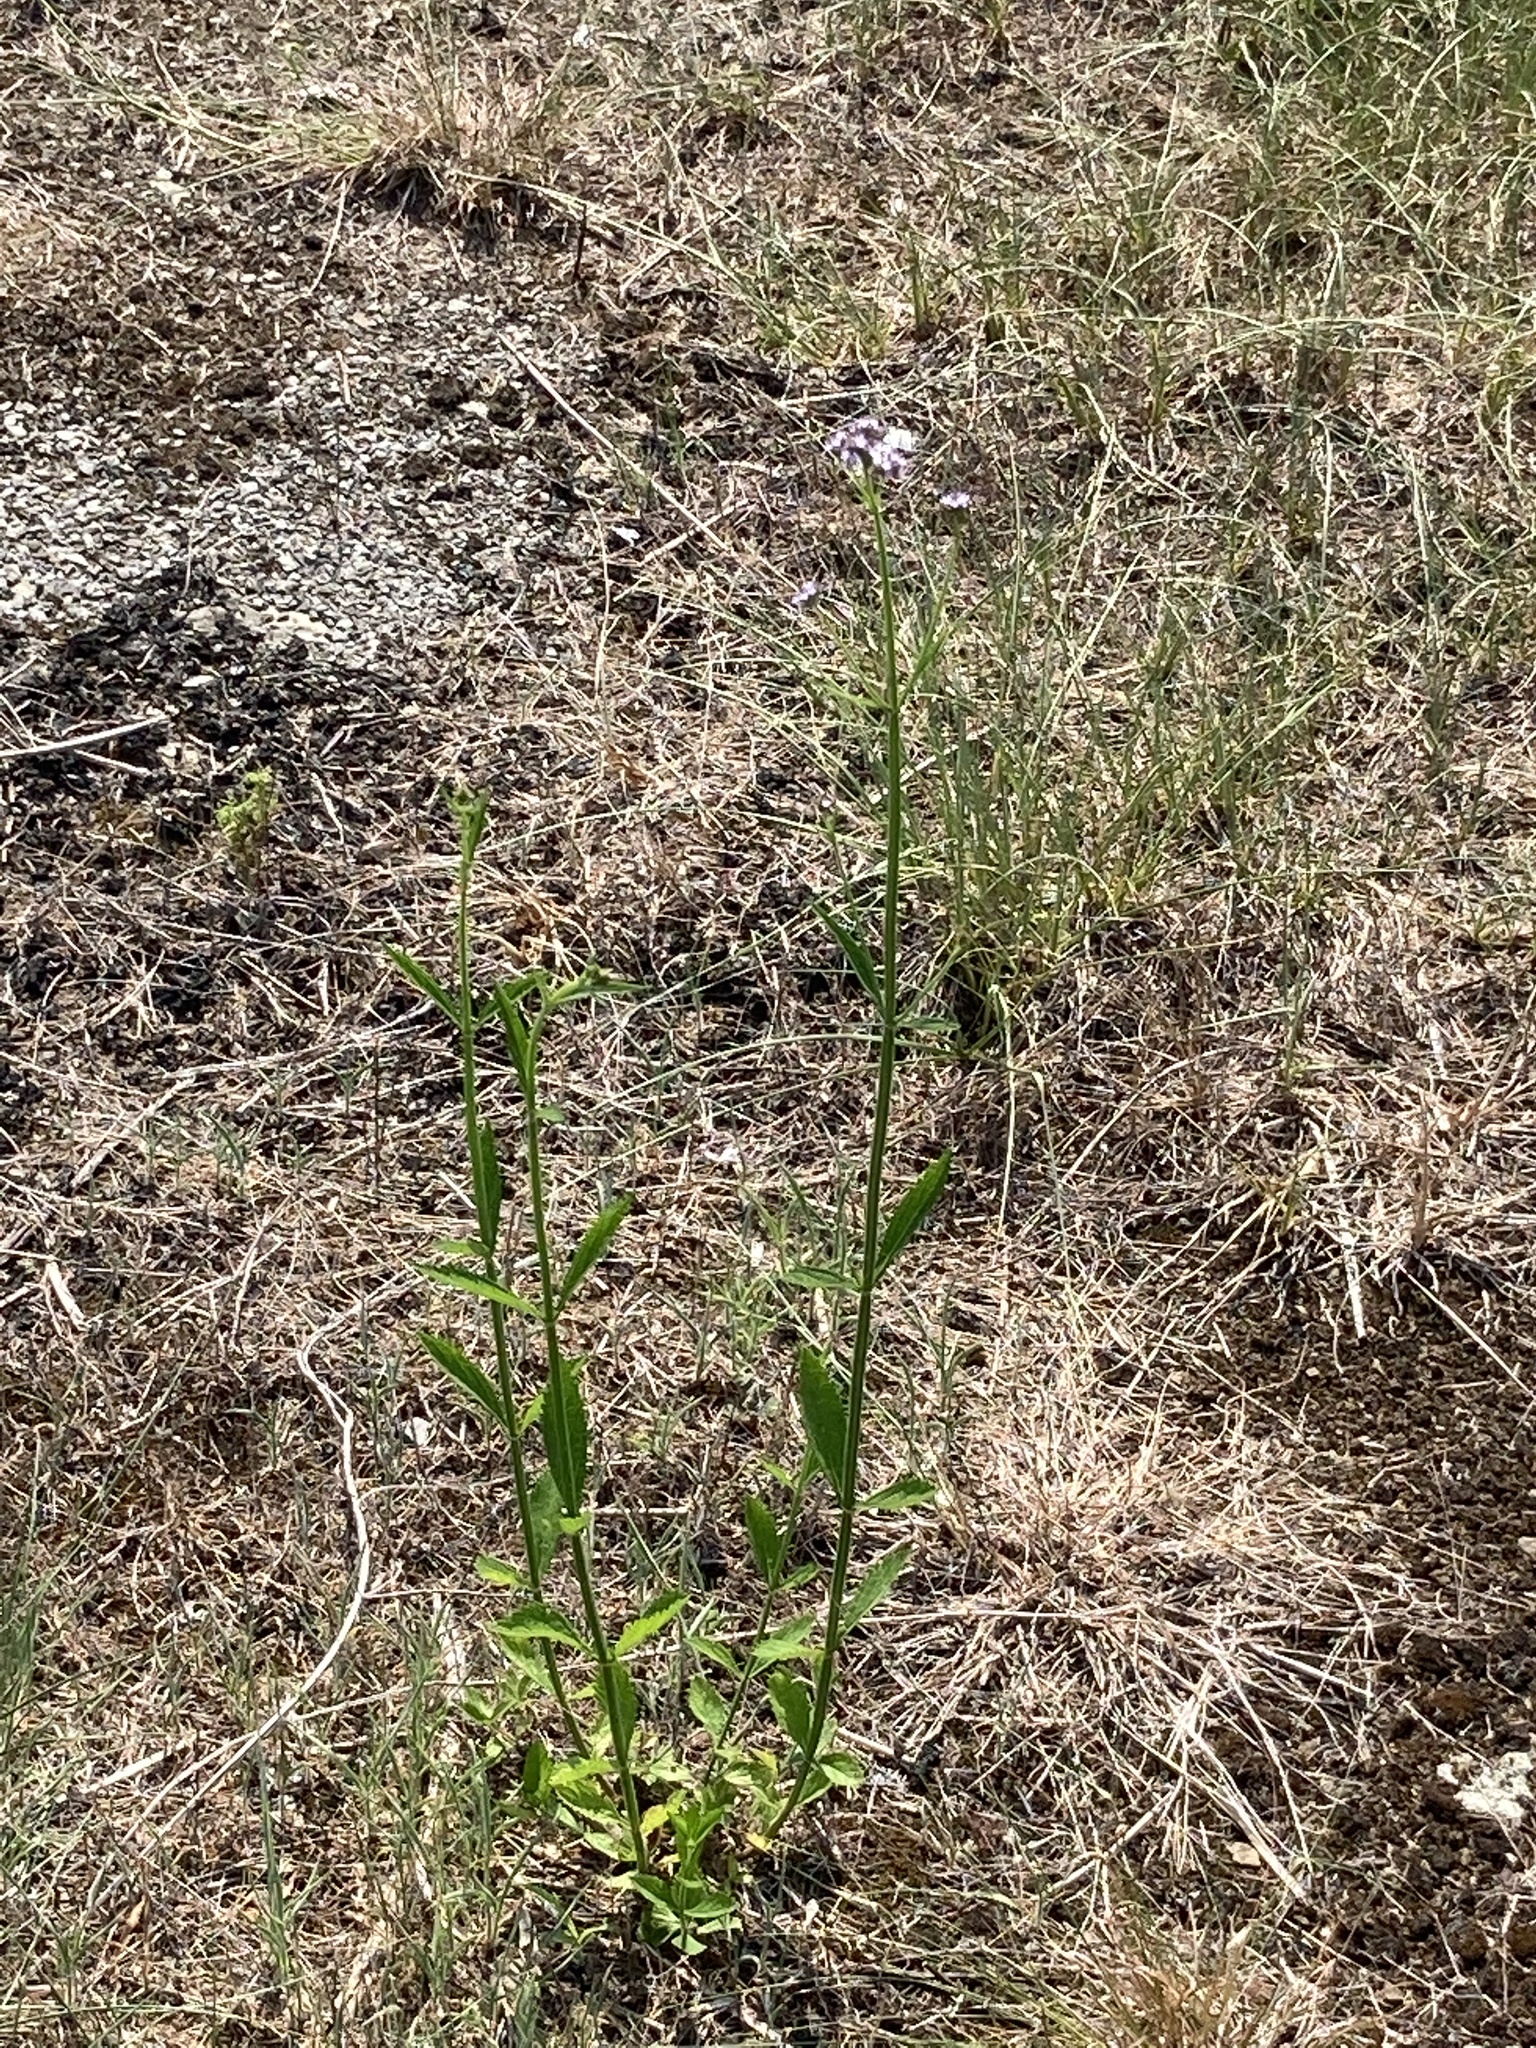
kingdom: Plantae
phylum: Tracheophyta
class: Magnoliopsida
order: Lamiales
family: Verbenaceae
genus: Verbena
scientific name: Verbena brasiliensis
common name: Brazilian vervain
